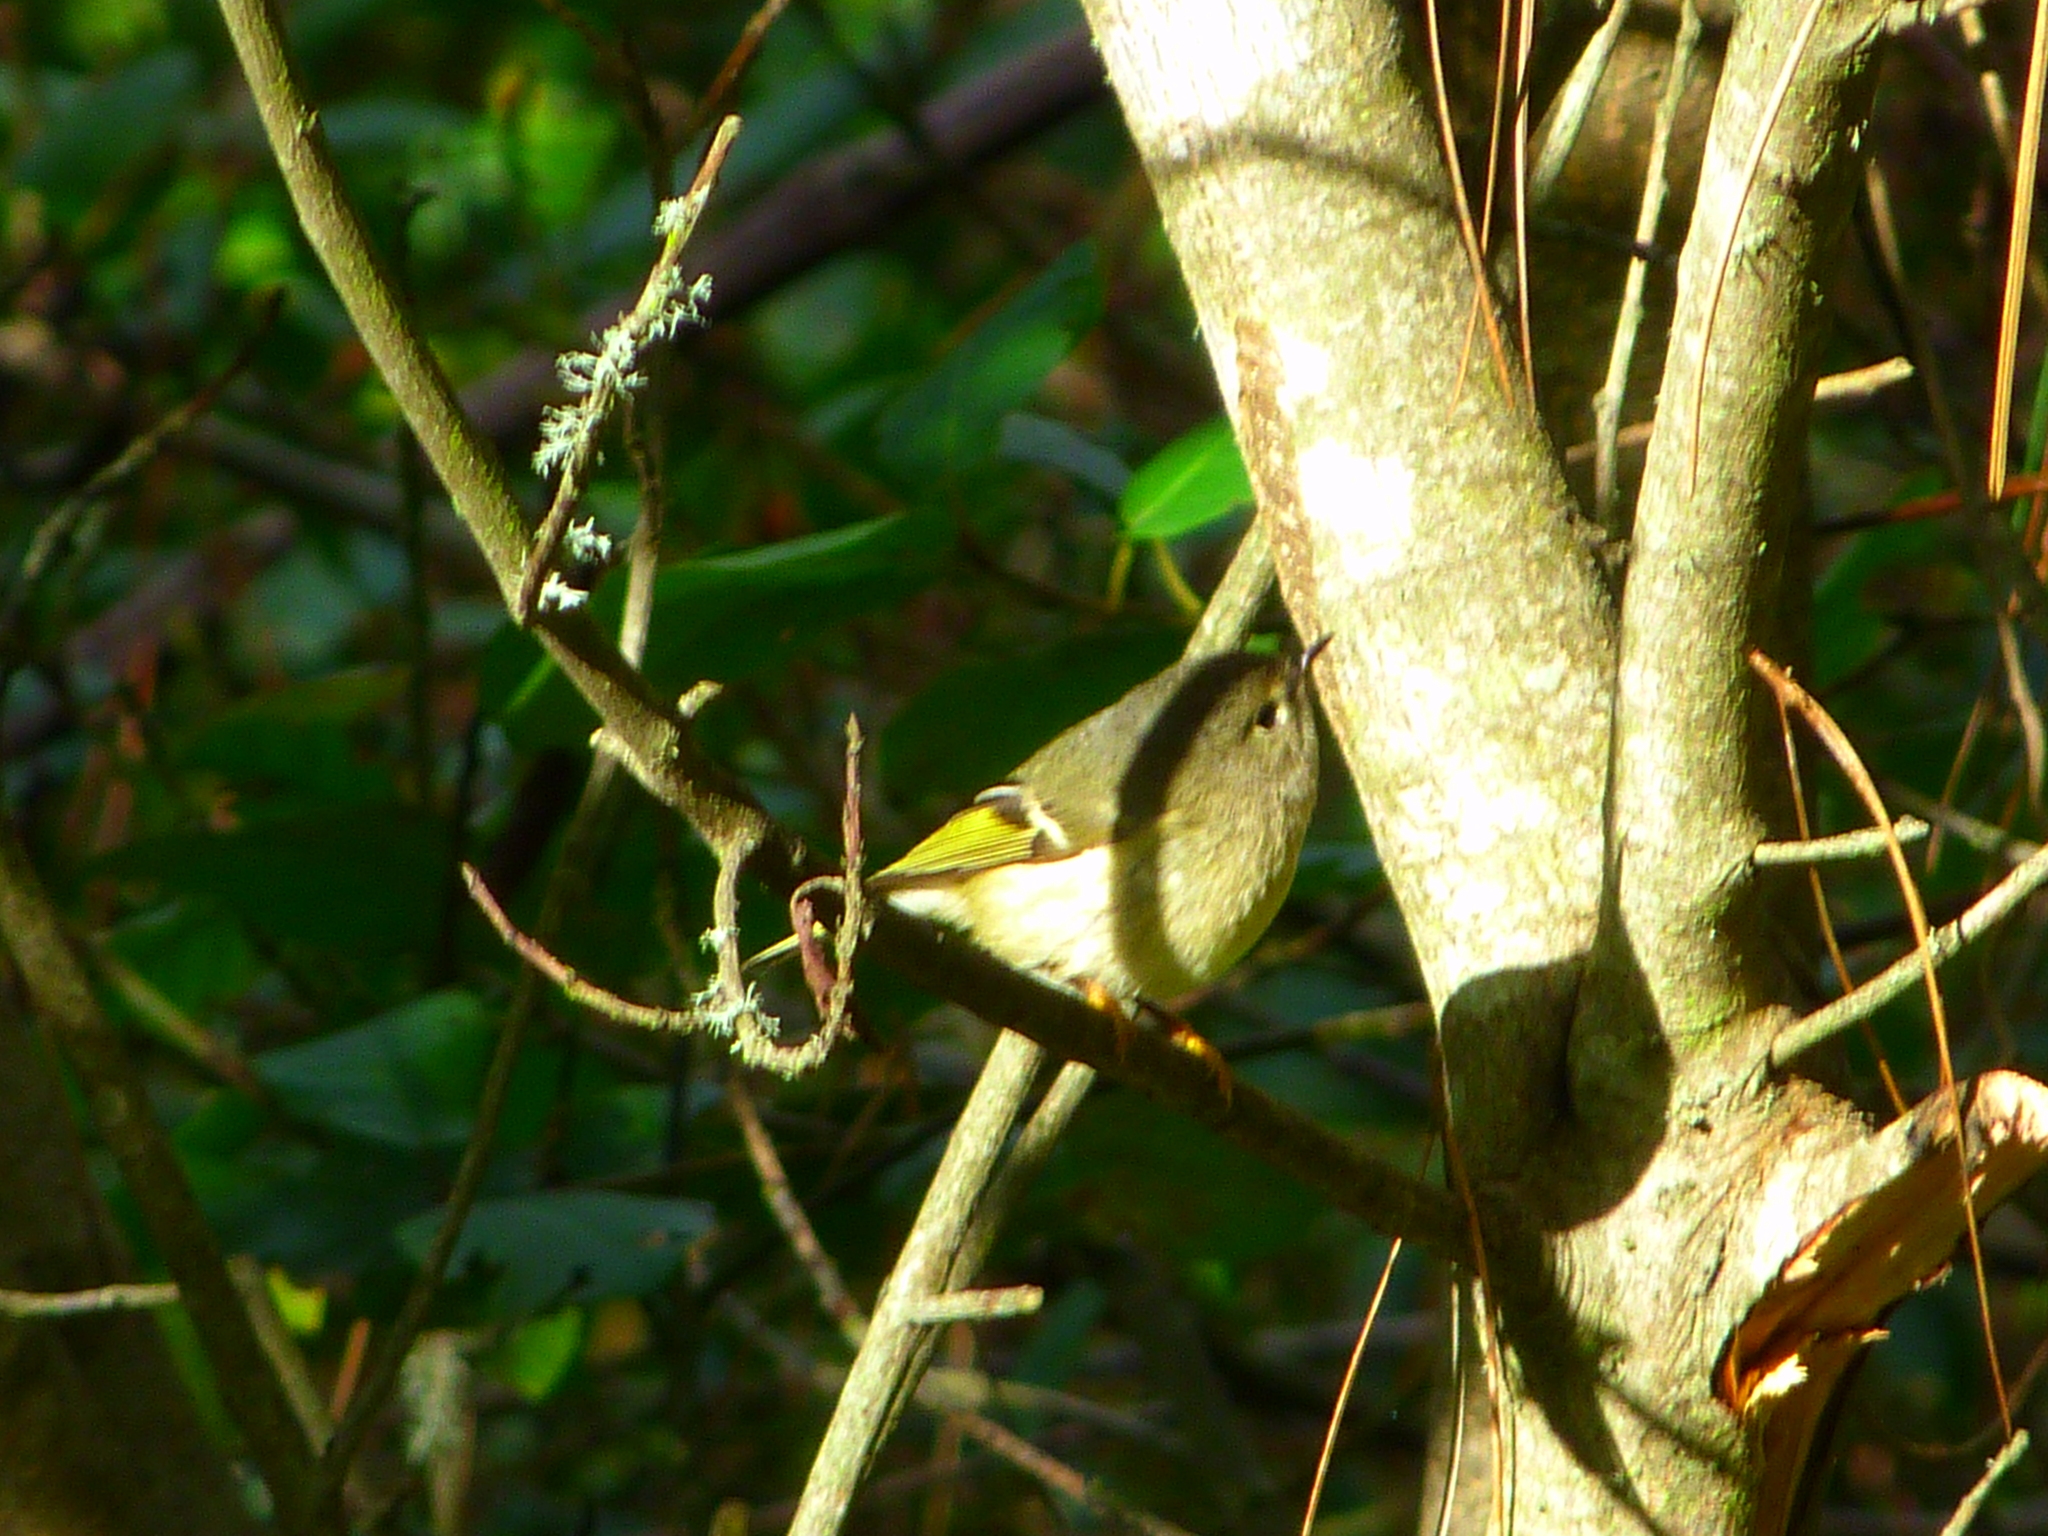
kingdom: Animalia
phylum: Chordata
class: Aves
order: Passeriformes
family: Regulidae
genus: Regulus
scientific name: Regulus calendula
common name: Ruby-crowned kinglet
